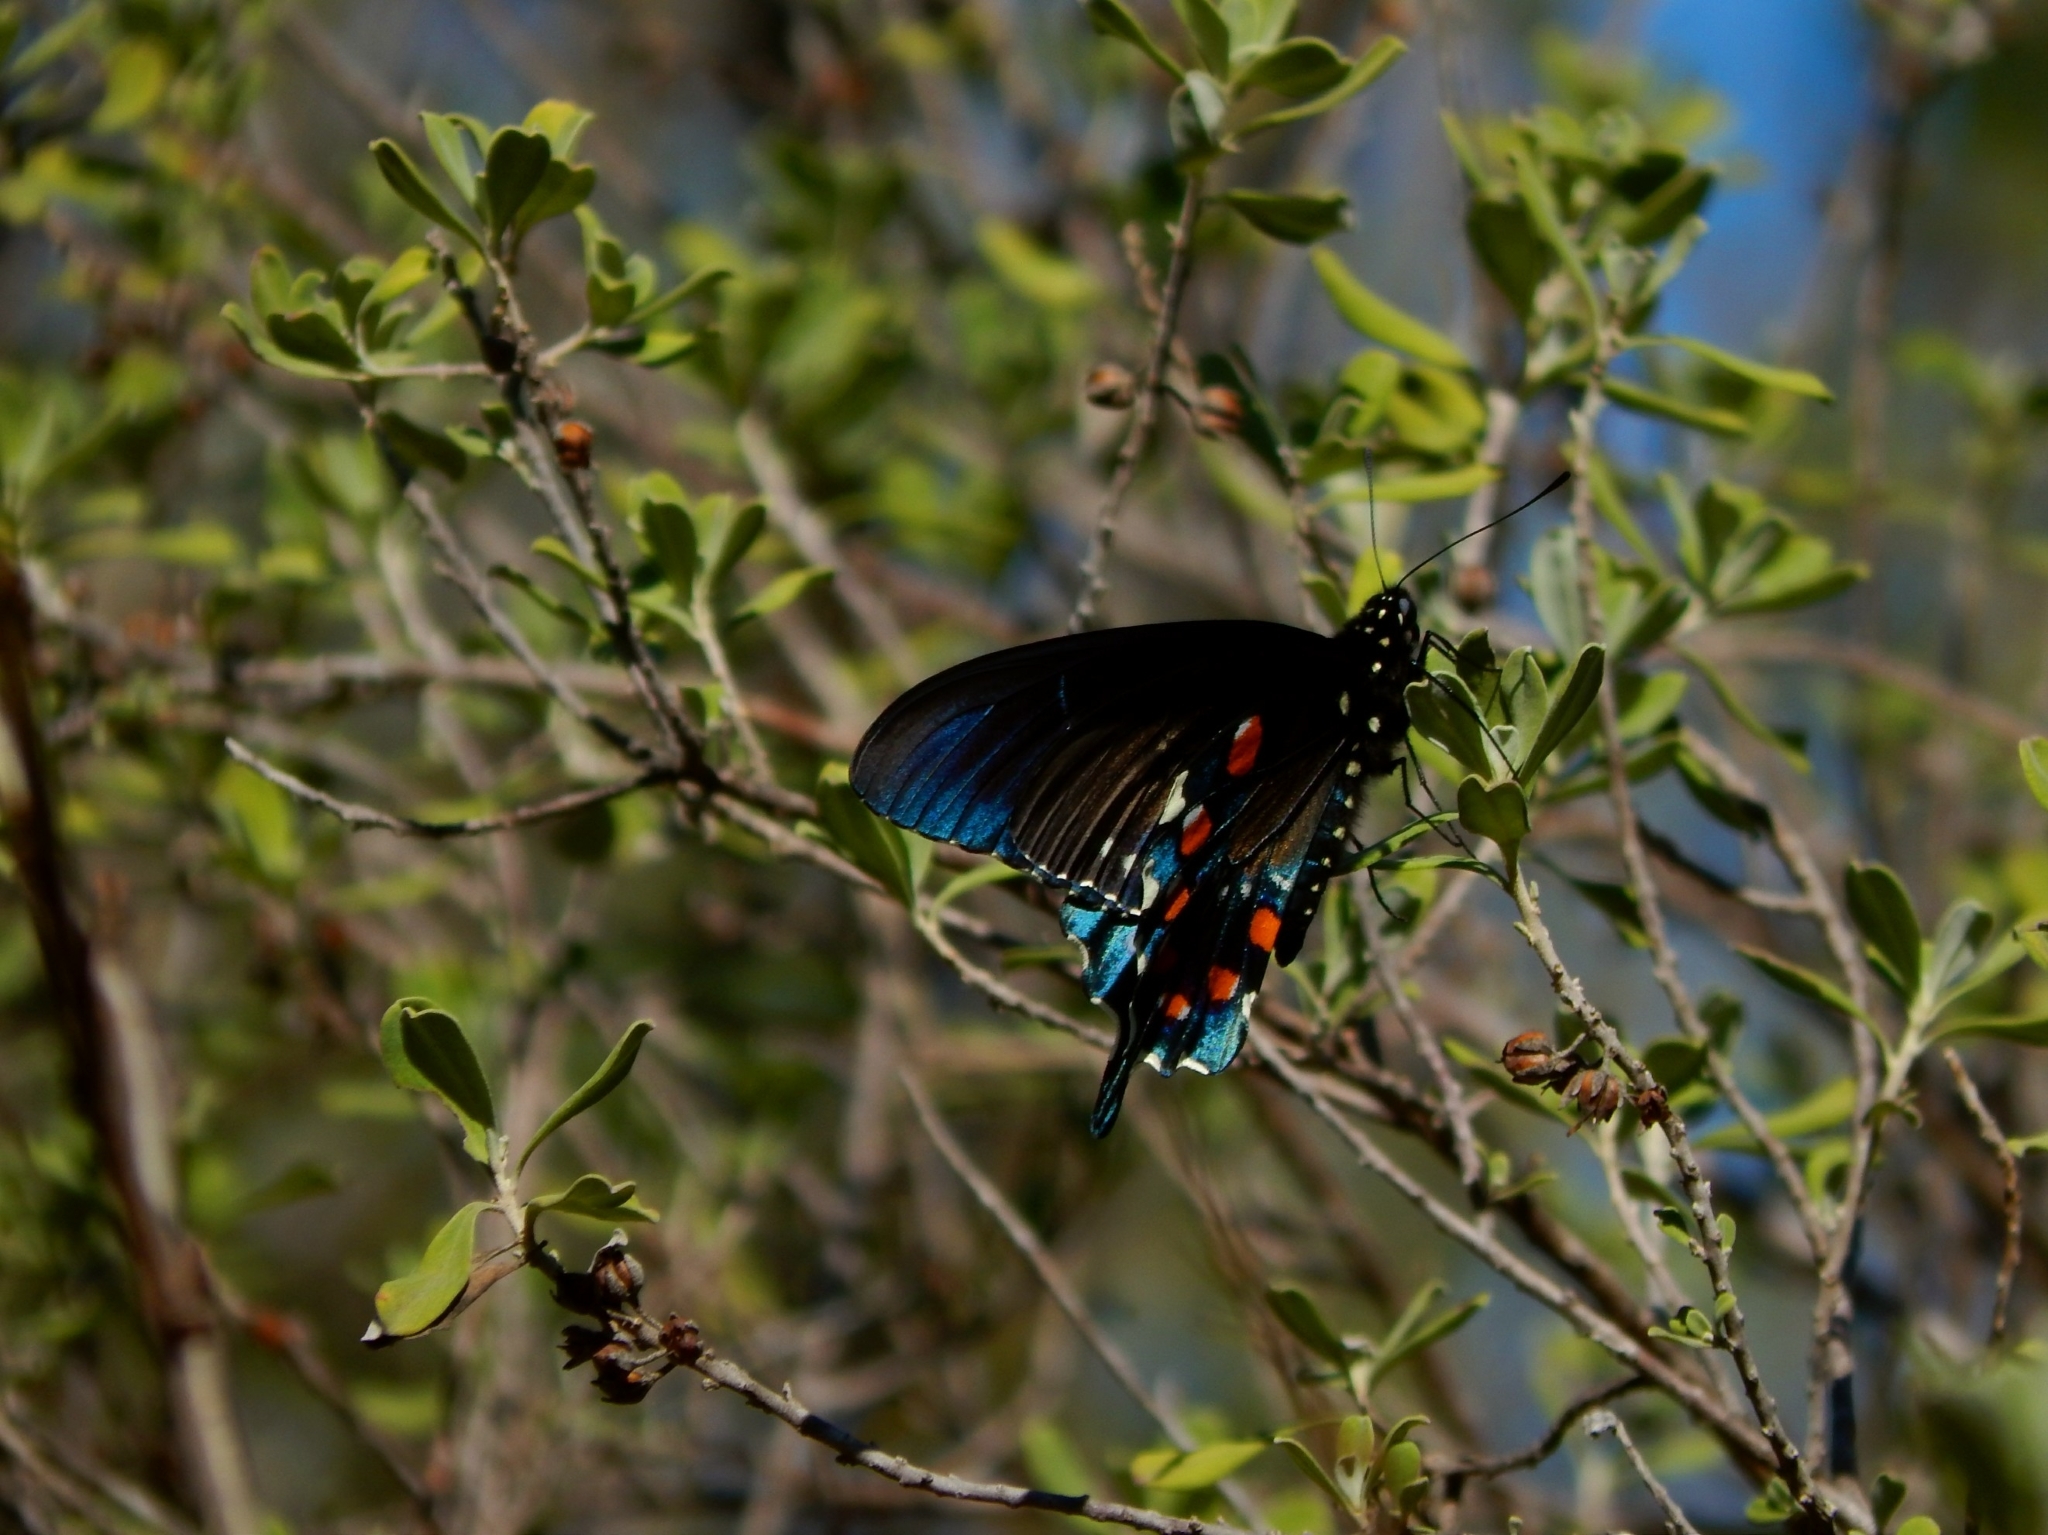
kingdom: Animalia
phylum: Arthropoda
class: Insecta
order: Lepidoptera
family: Papilionidae
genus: Battus
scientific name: Battus philenor
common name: Pipevine swallowtail
